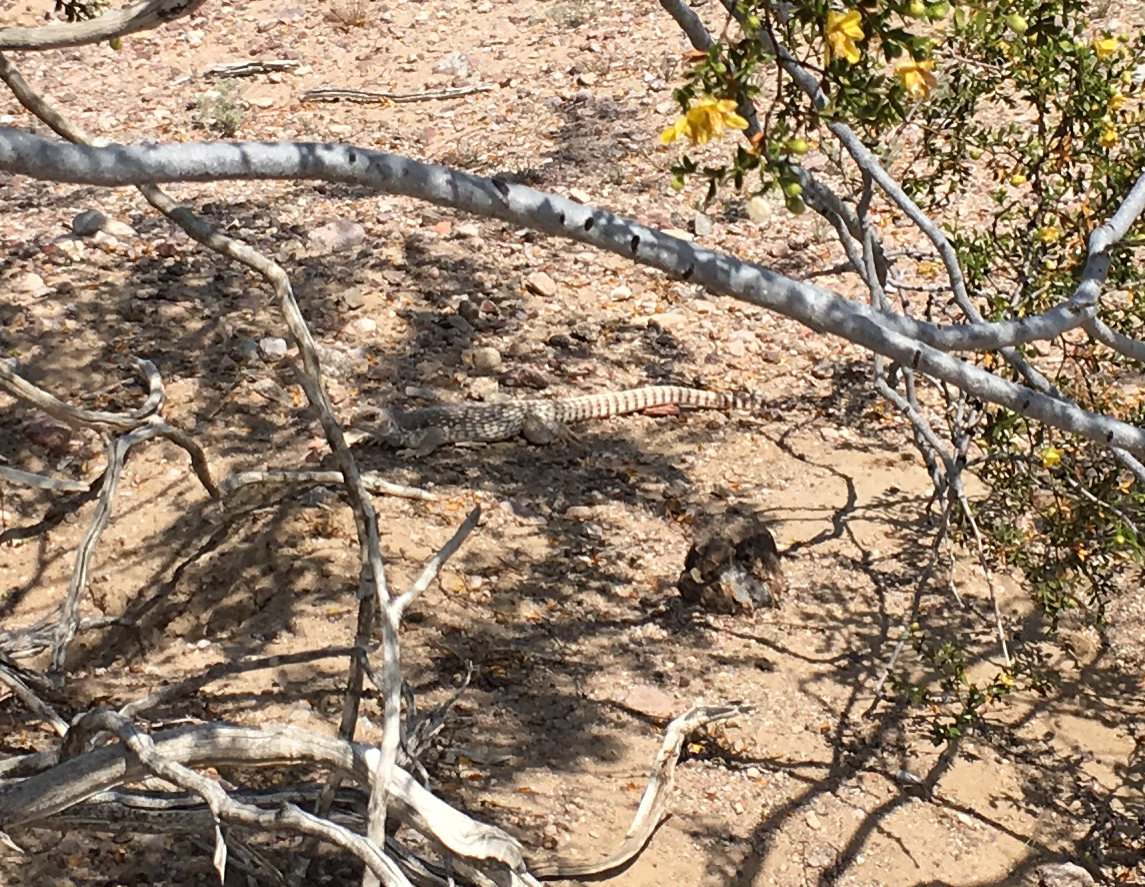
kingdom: Animalia
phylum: Chordata
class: Squamata
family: Iguanidae
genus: Dipsosaurus
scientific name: Dipsosaurus dorsalis
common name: Desert iguana
